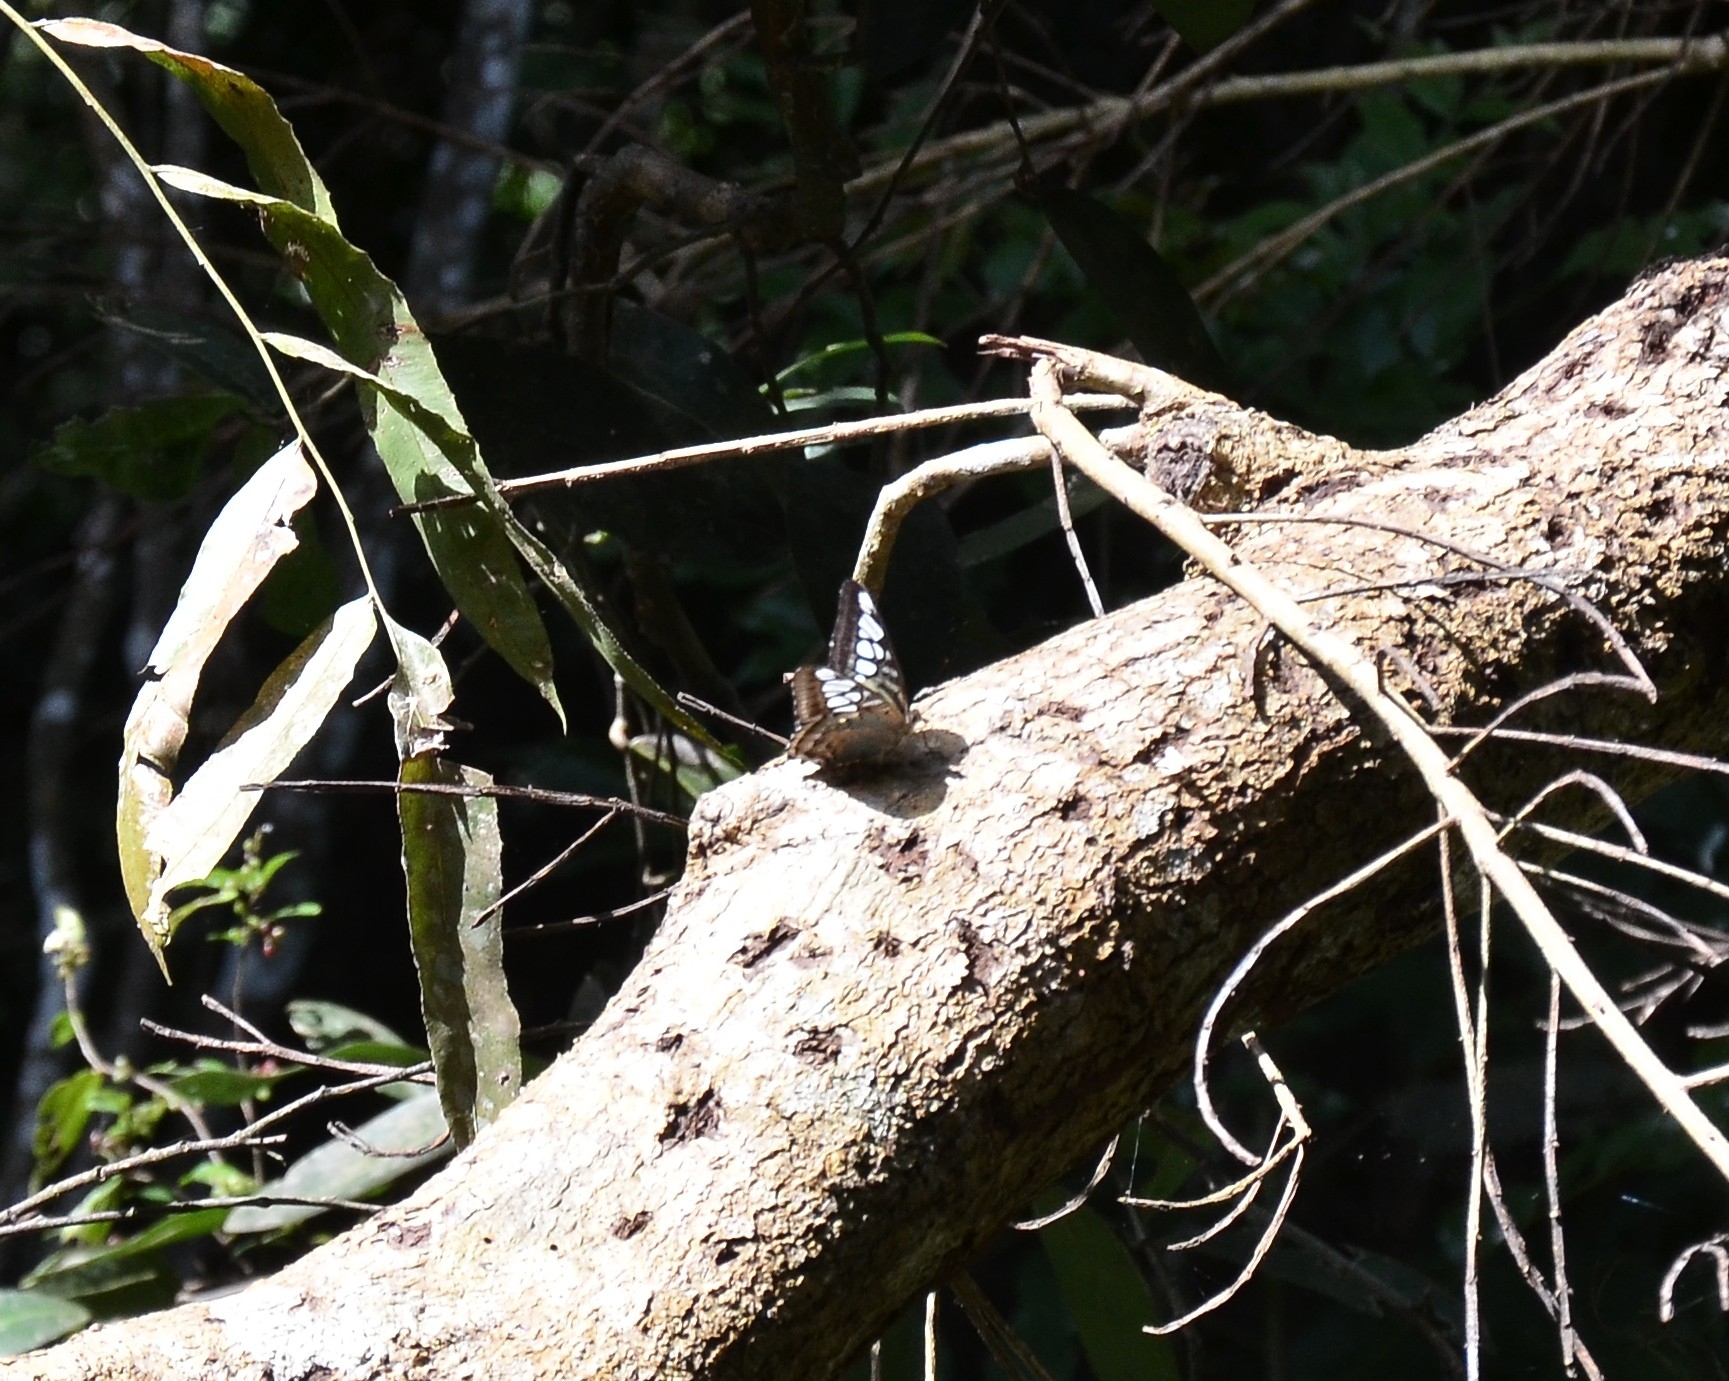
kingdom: Animalia
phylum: Arthropoda
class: Insecta
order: Lepidoptera
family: Nymphalidae
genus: Kallima
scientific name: Kallima sylvia
